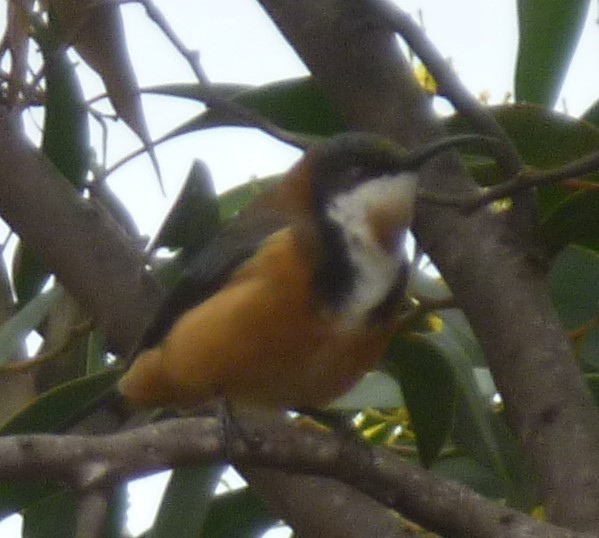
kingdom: Animalia
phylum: Chordata
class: Aves
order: Passeriformes
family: Meliphagidae
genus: Acanthorhynchus
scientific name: Acanthorhynchus tenuirostris
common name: Eastern spinebill
